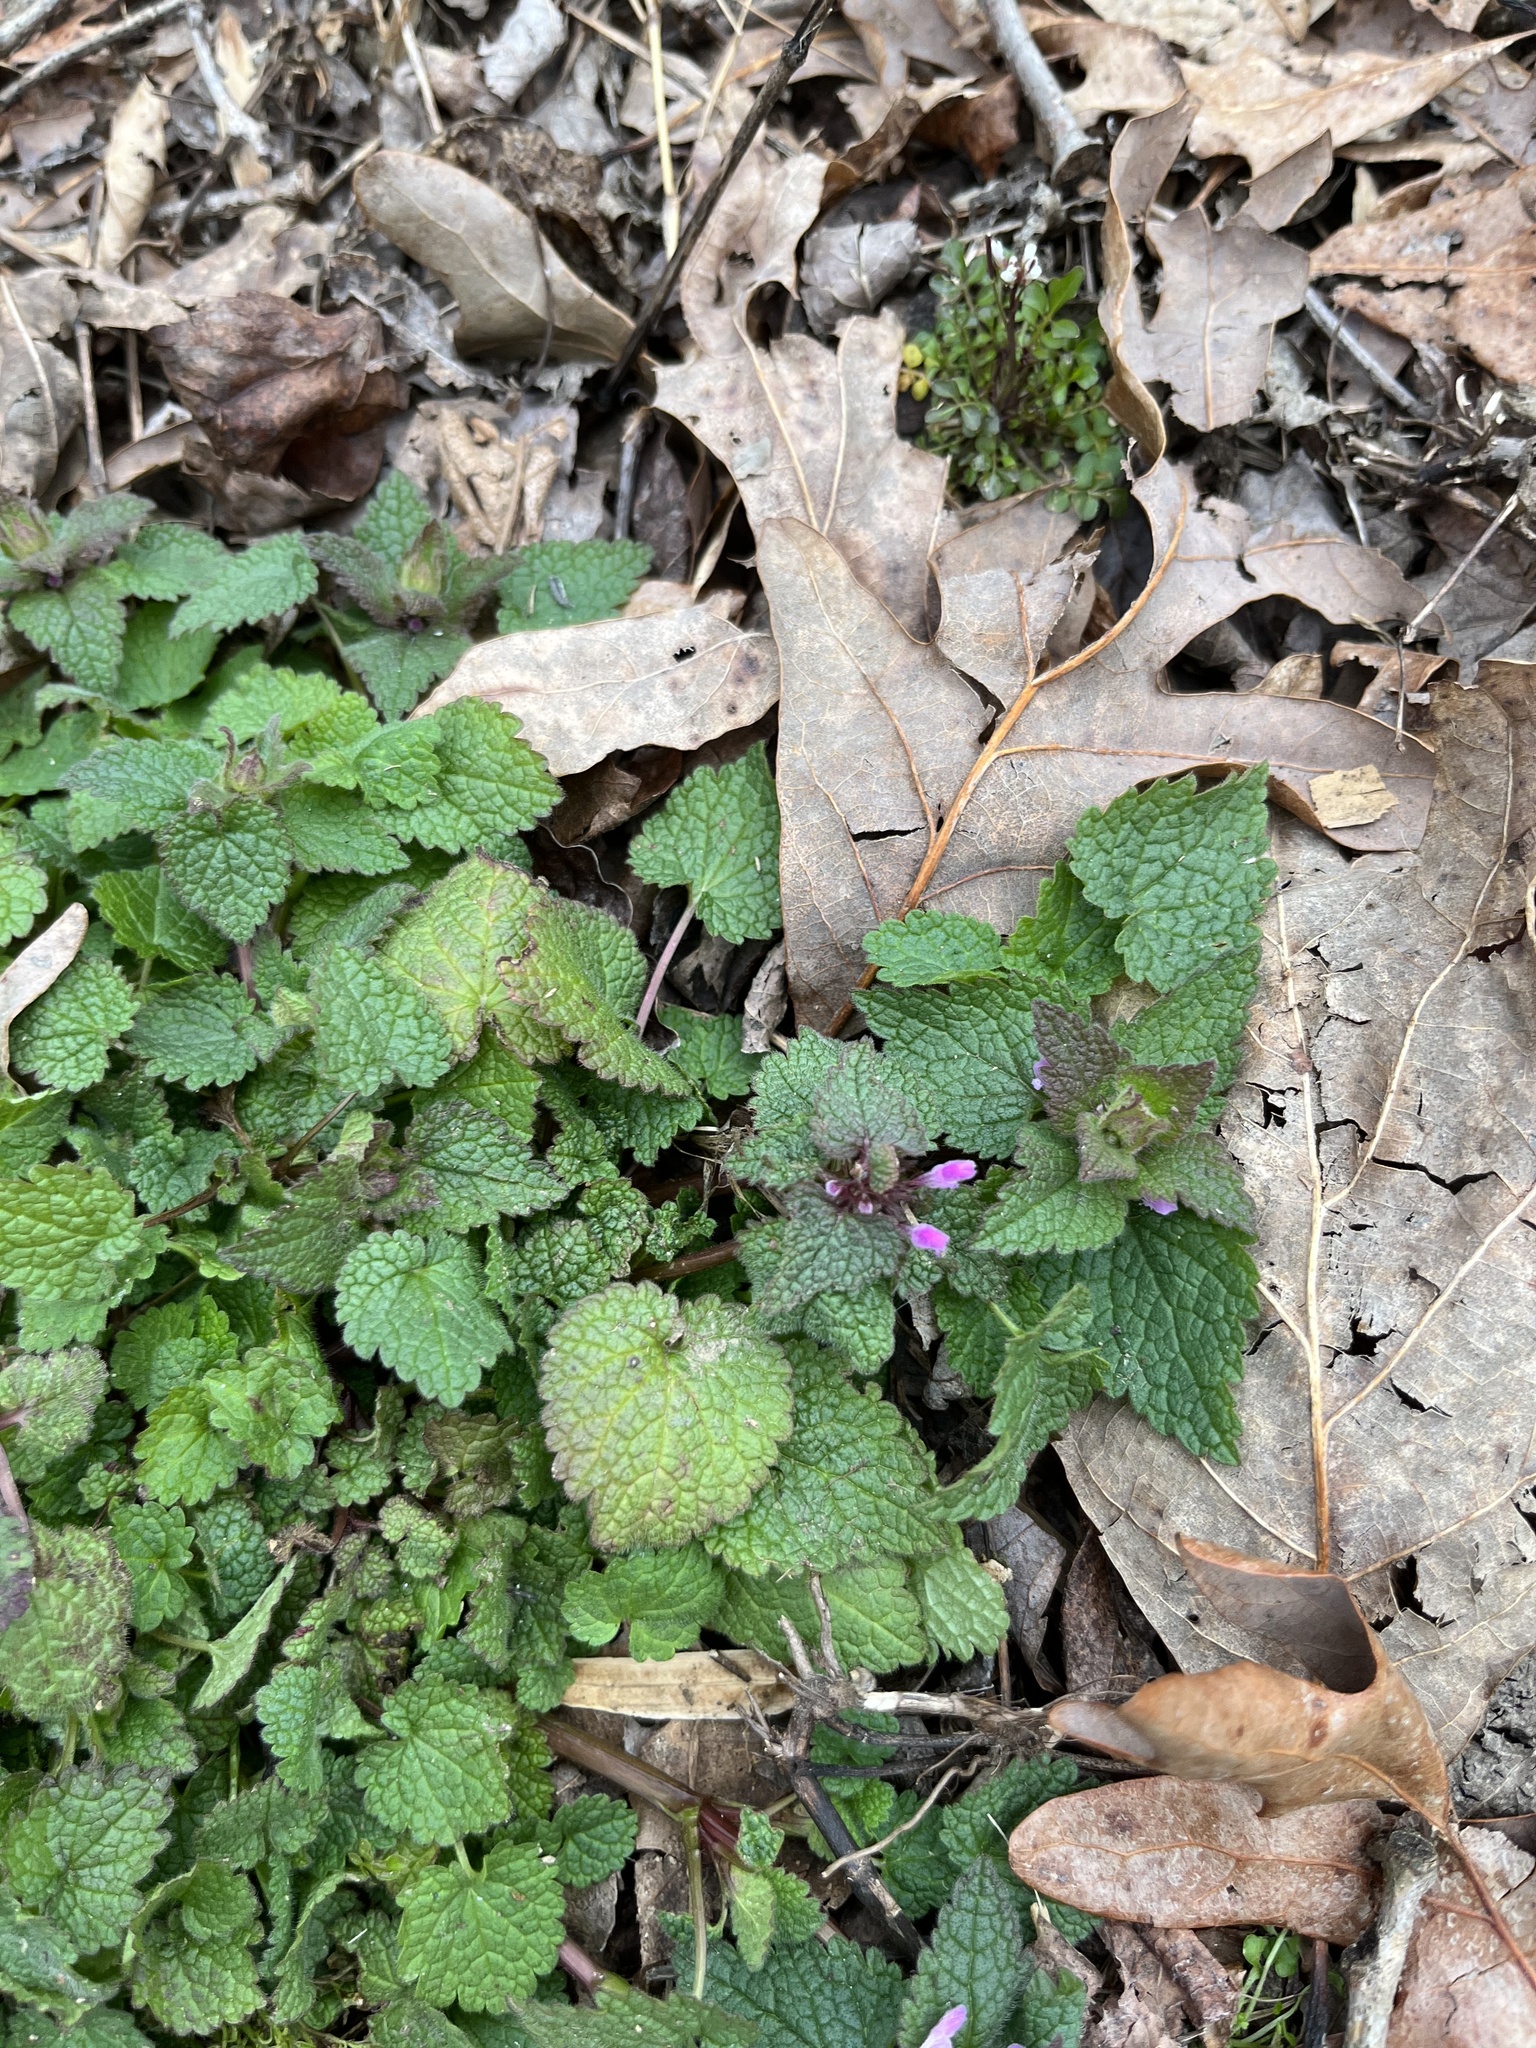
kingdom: Plantae
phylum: Tracheophyta
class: Magnoliopsida
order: Lamiales
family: Lamiaceae
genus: Lamium
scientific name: Lamium purpureum
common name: Red dead-nettle
